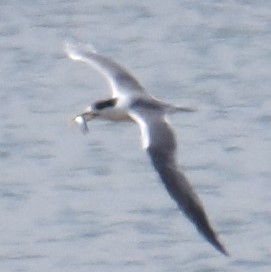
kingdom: Animalia
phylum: Chordata
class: Aves
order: Charadriiformes
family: Laridae
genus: Thalasseus
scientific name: Thalasseus bergii
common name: Greater crested tern
